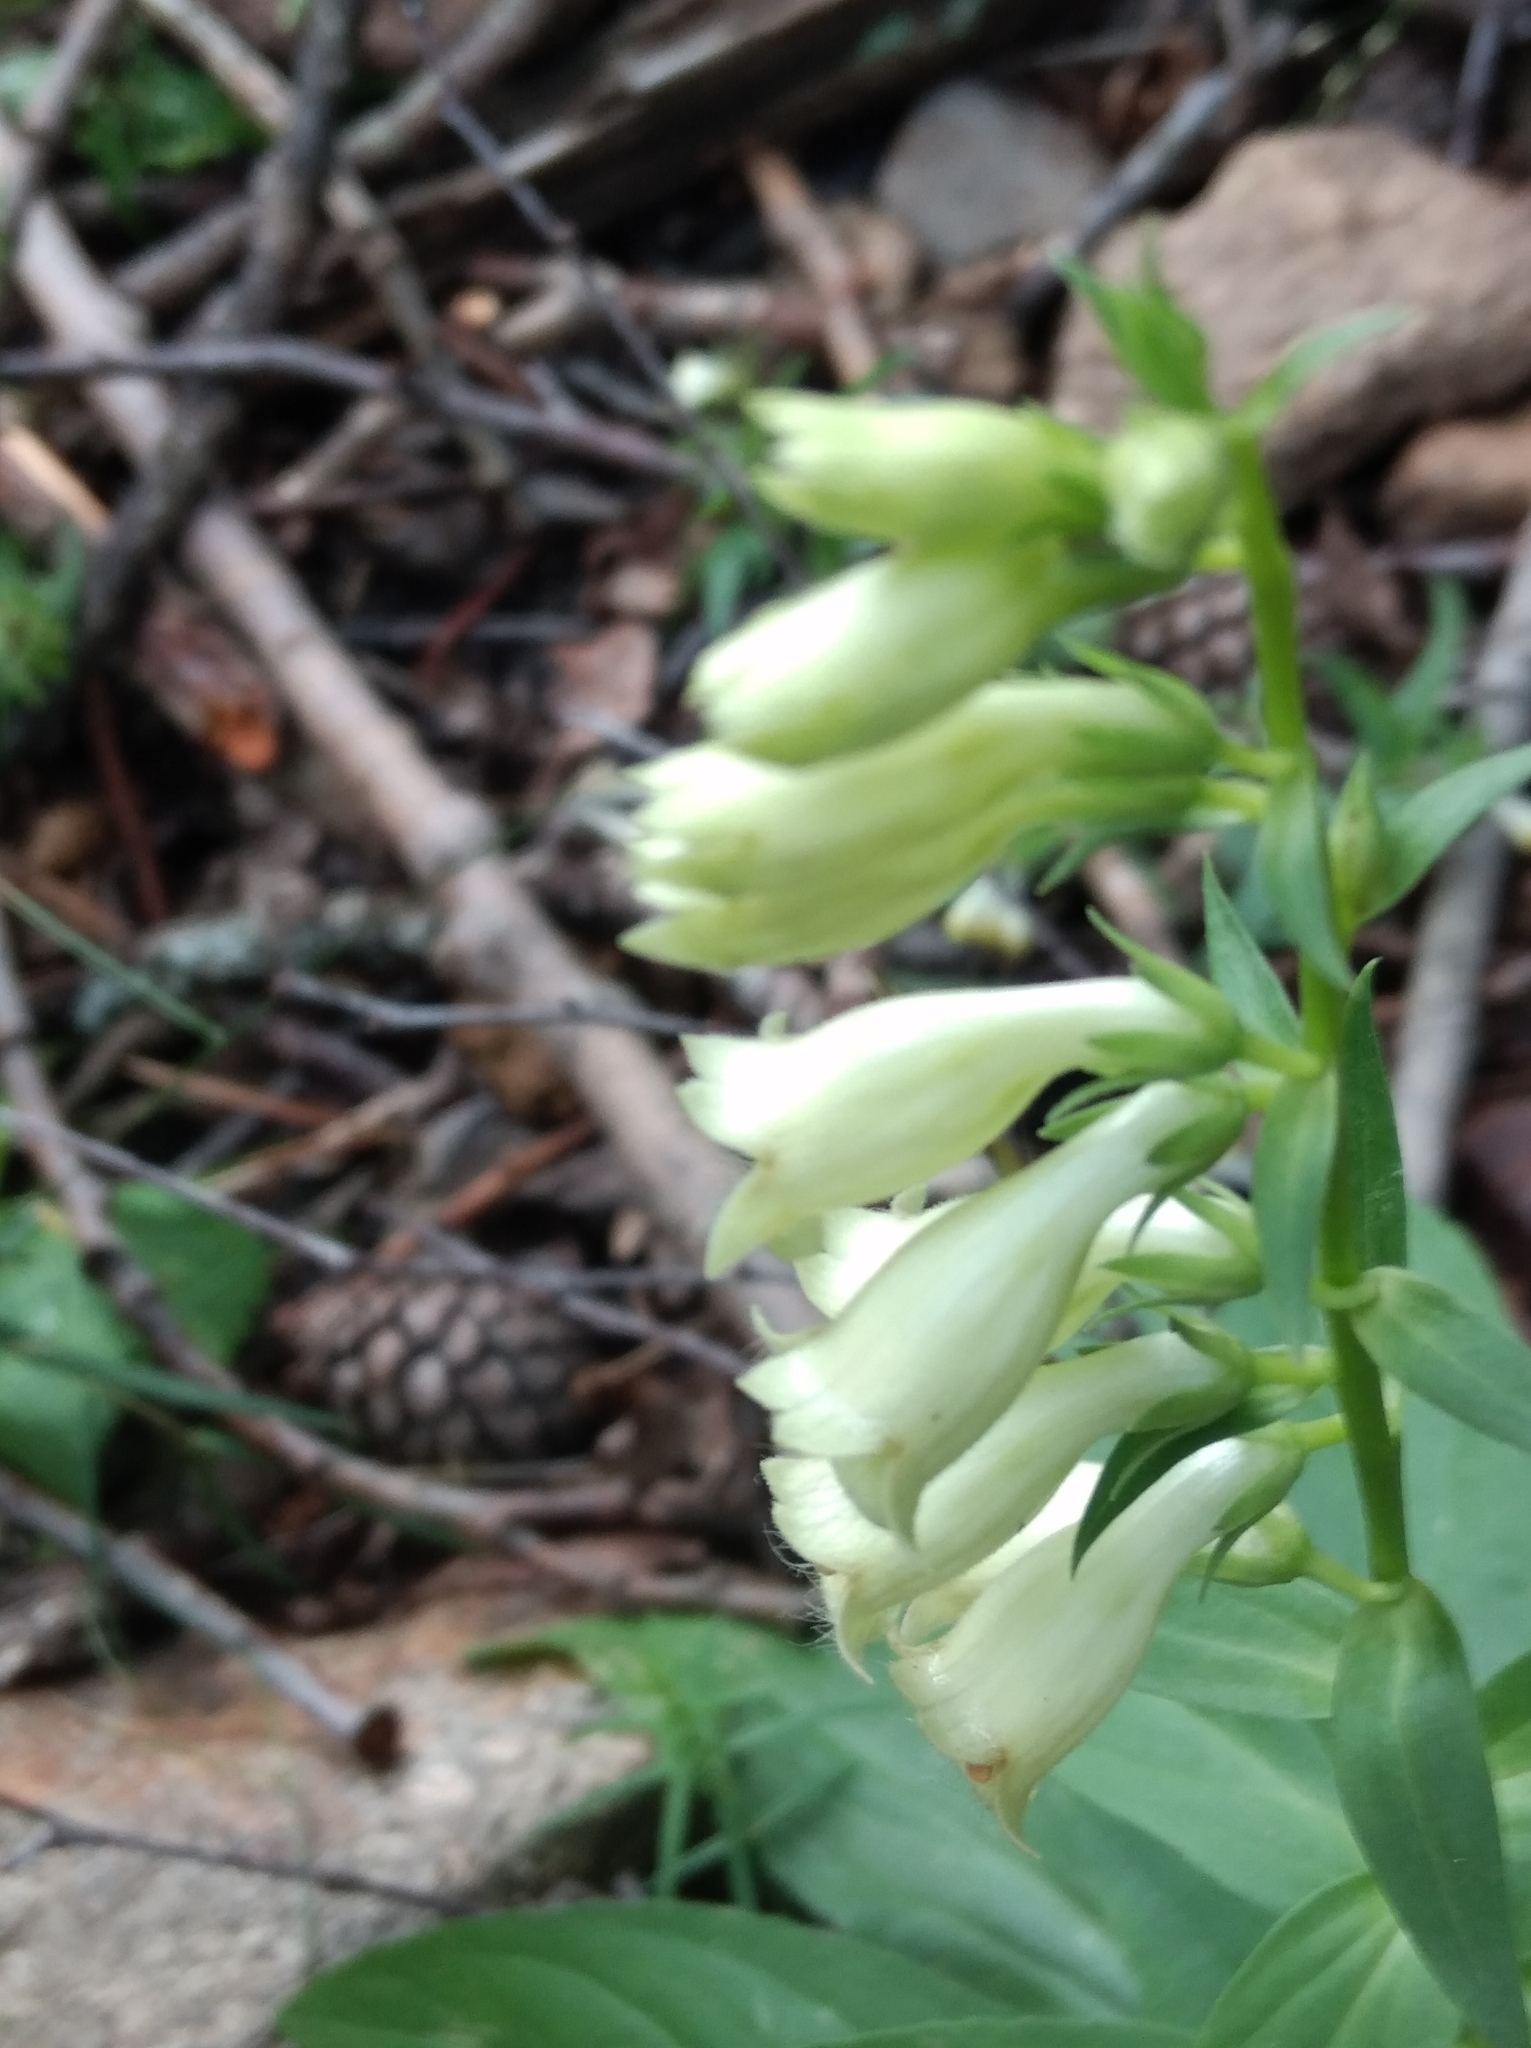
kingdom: Plantae
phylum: Tracheophyta
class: Magnoliopsida
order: Lamiales
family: Plantaginaceae
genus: Digitalis
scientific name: Digitalis lutea
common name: Straw foxglove
